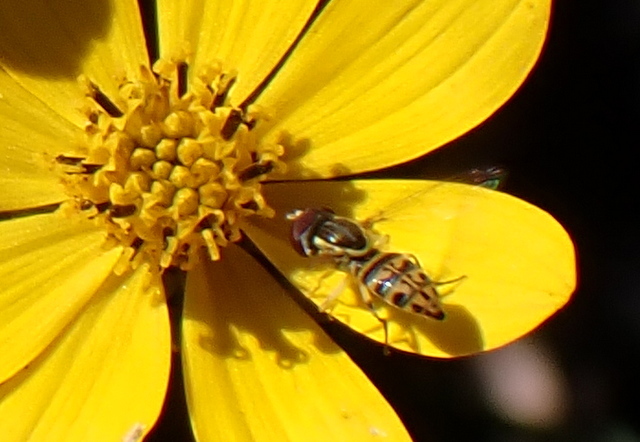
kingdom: Animalia
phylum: Arthropoda
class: Insecta
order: Diptera
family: Syrphidae
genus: Toxomerus
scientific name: Toxomerus parvulus
